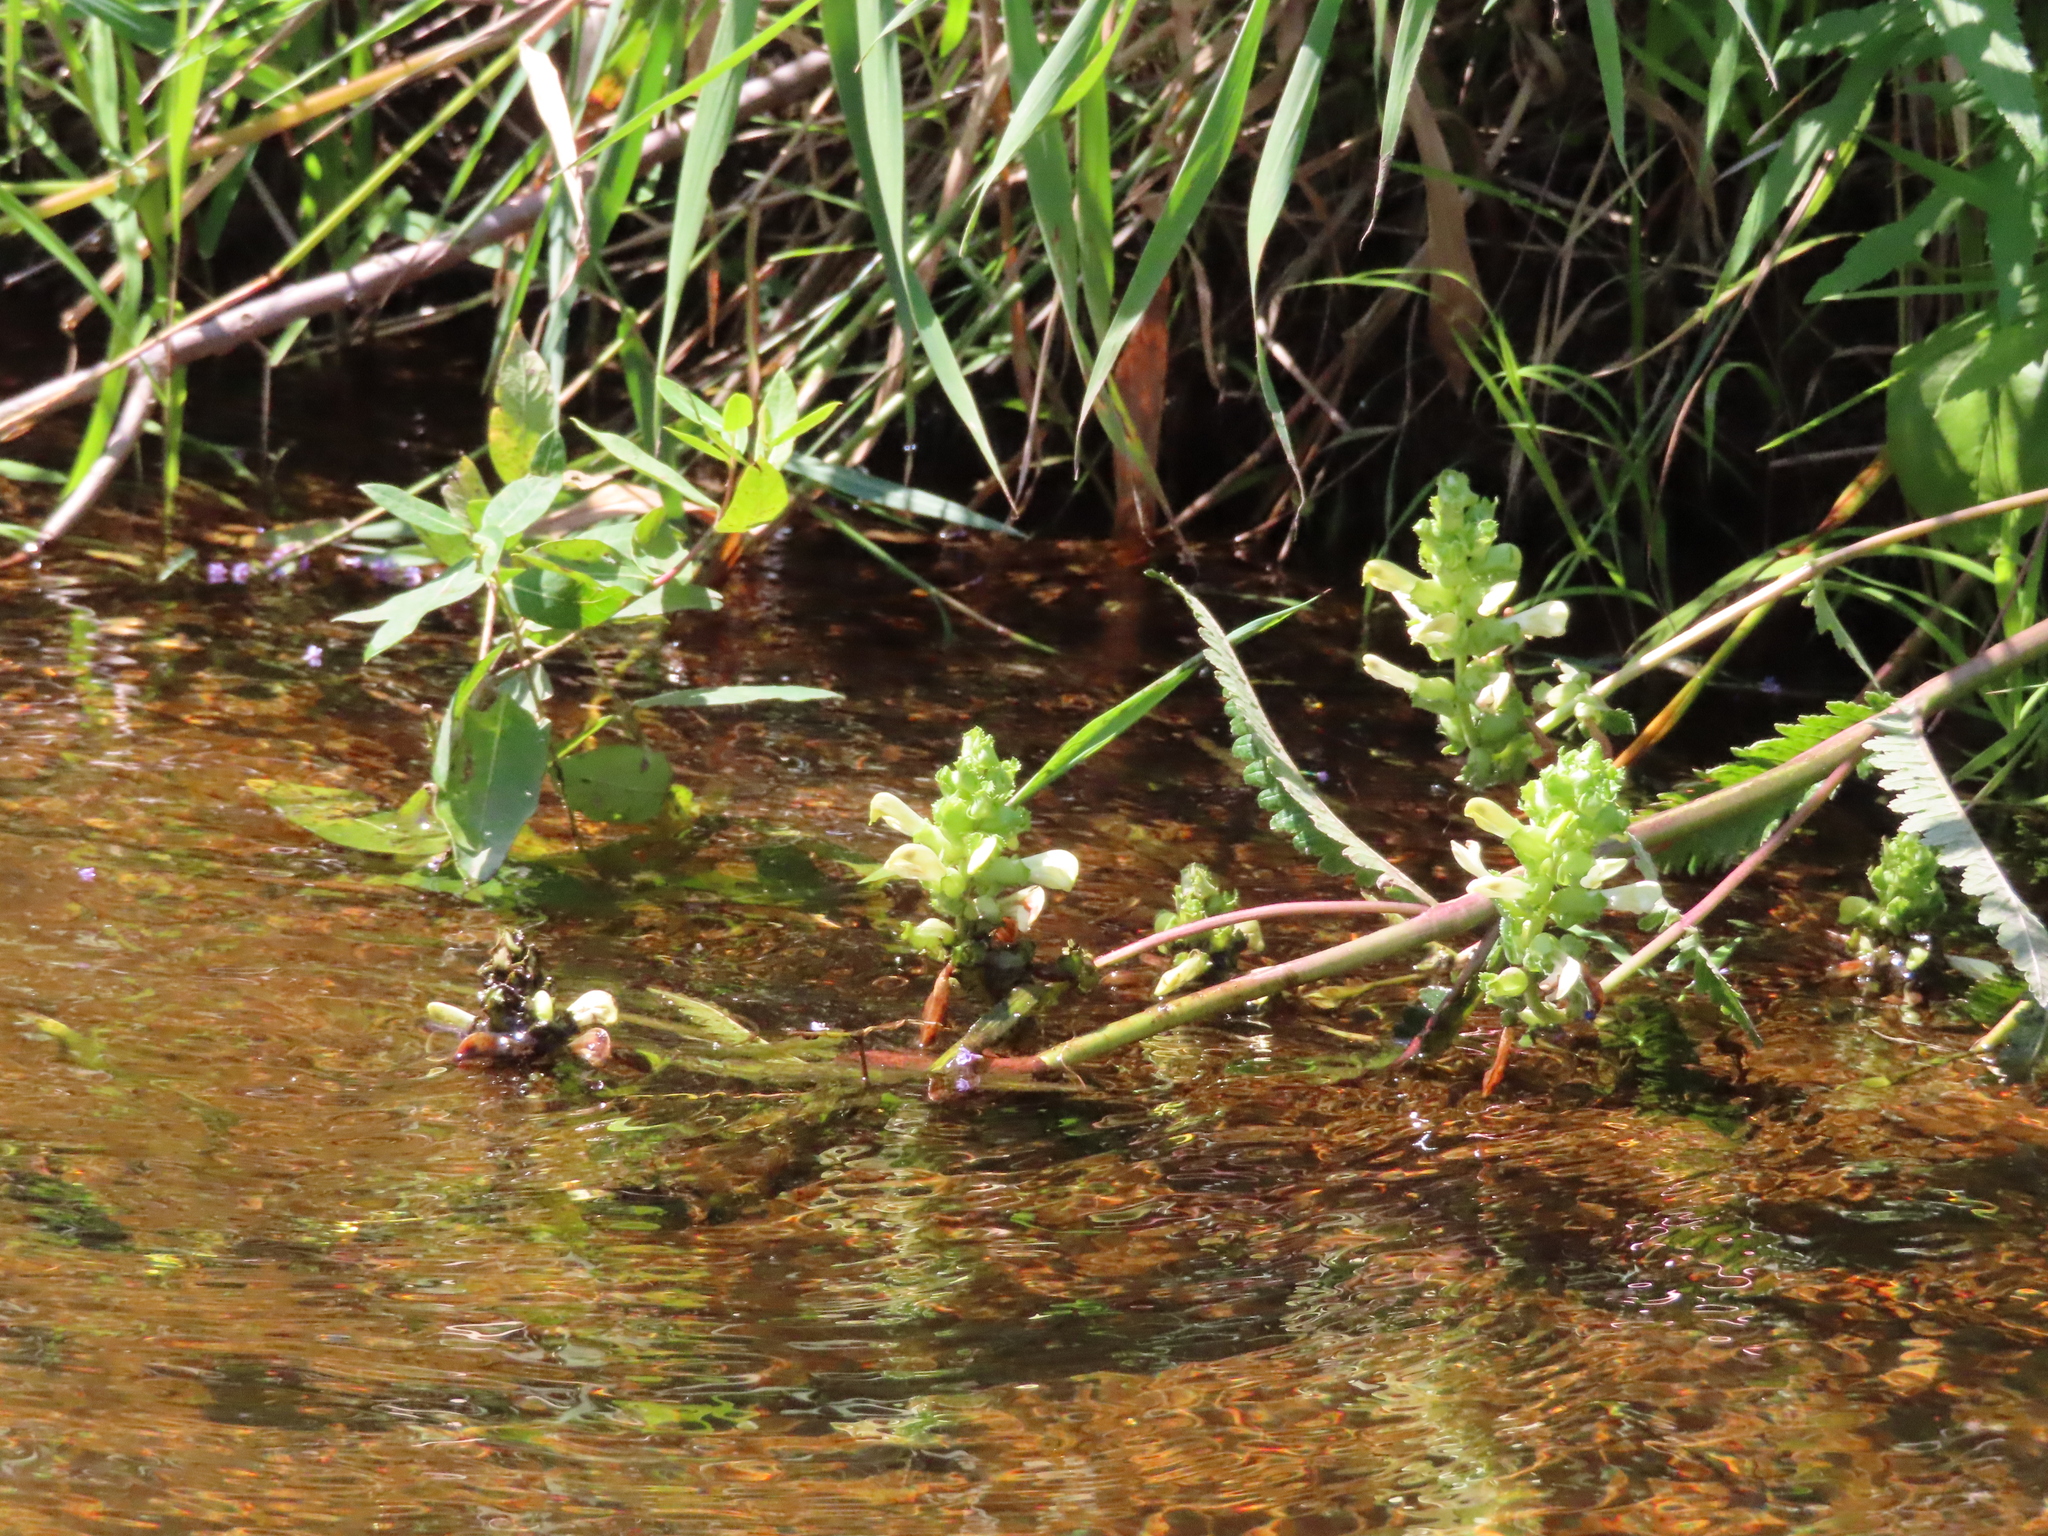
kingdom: Plantae
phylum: Tracheophyta
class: Magnoliopsida
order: Lamiales
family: Orobanchaceae
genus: Pedicularis
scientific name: Pedicularis lanceolata
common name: Swamp lousewort
